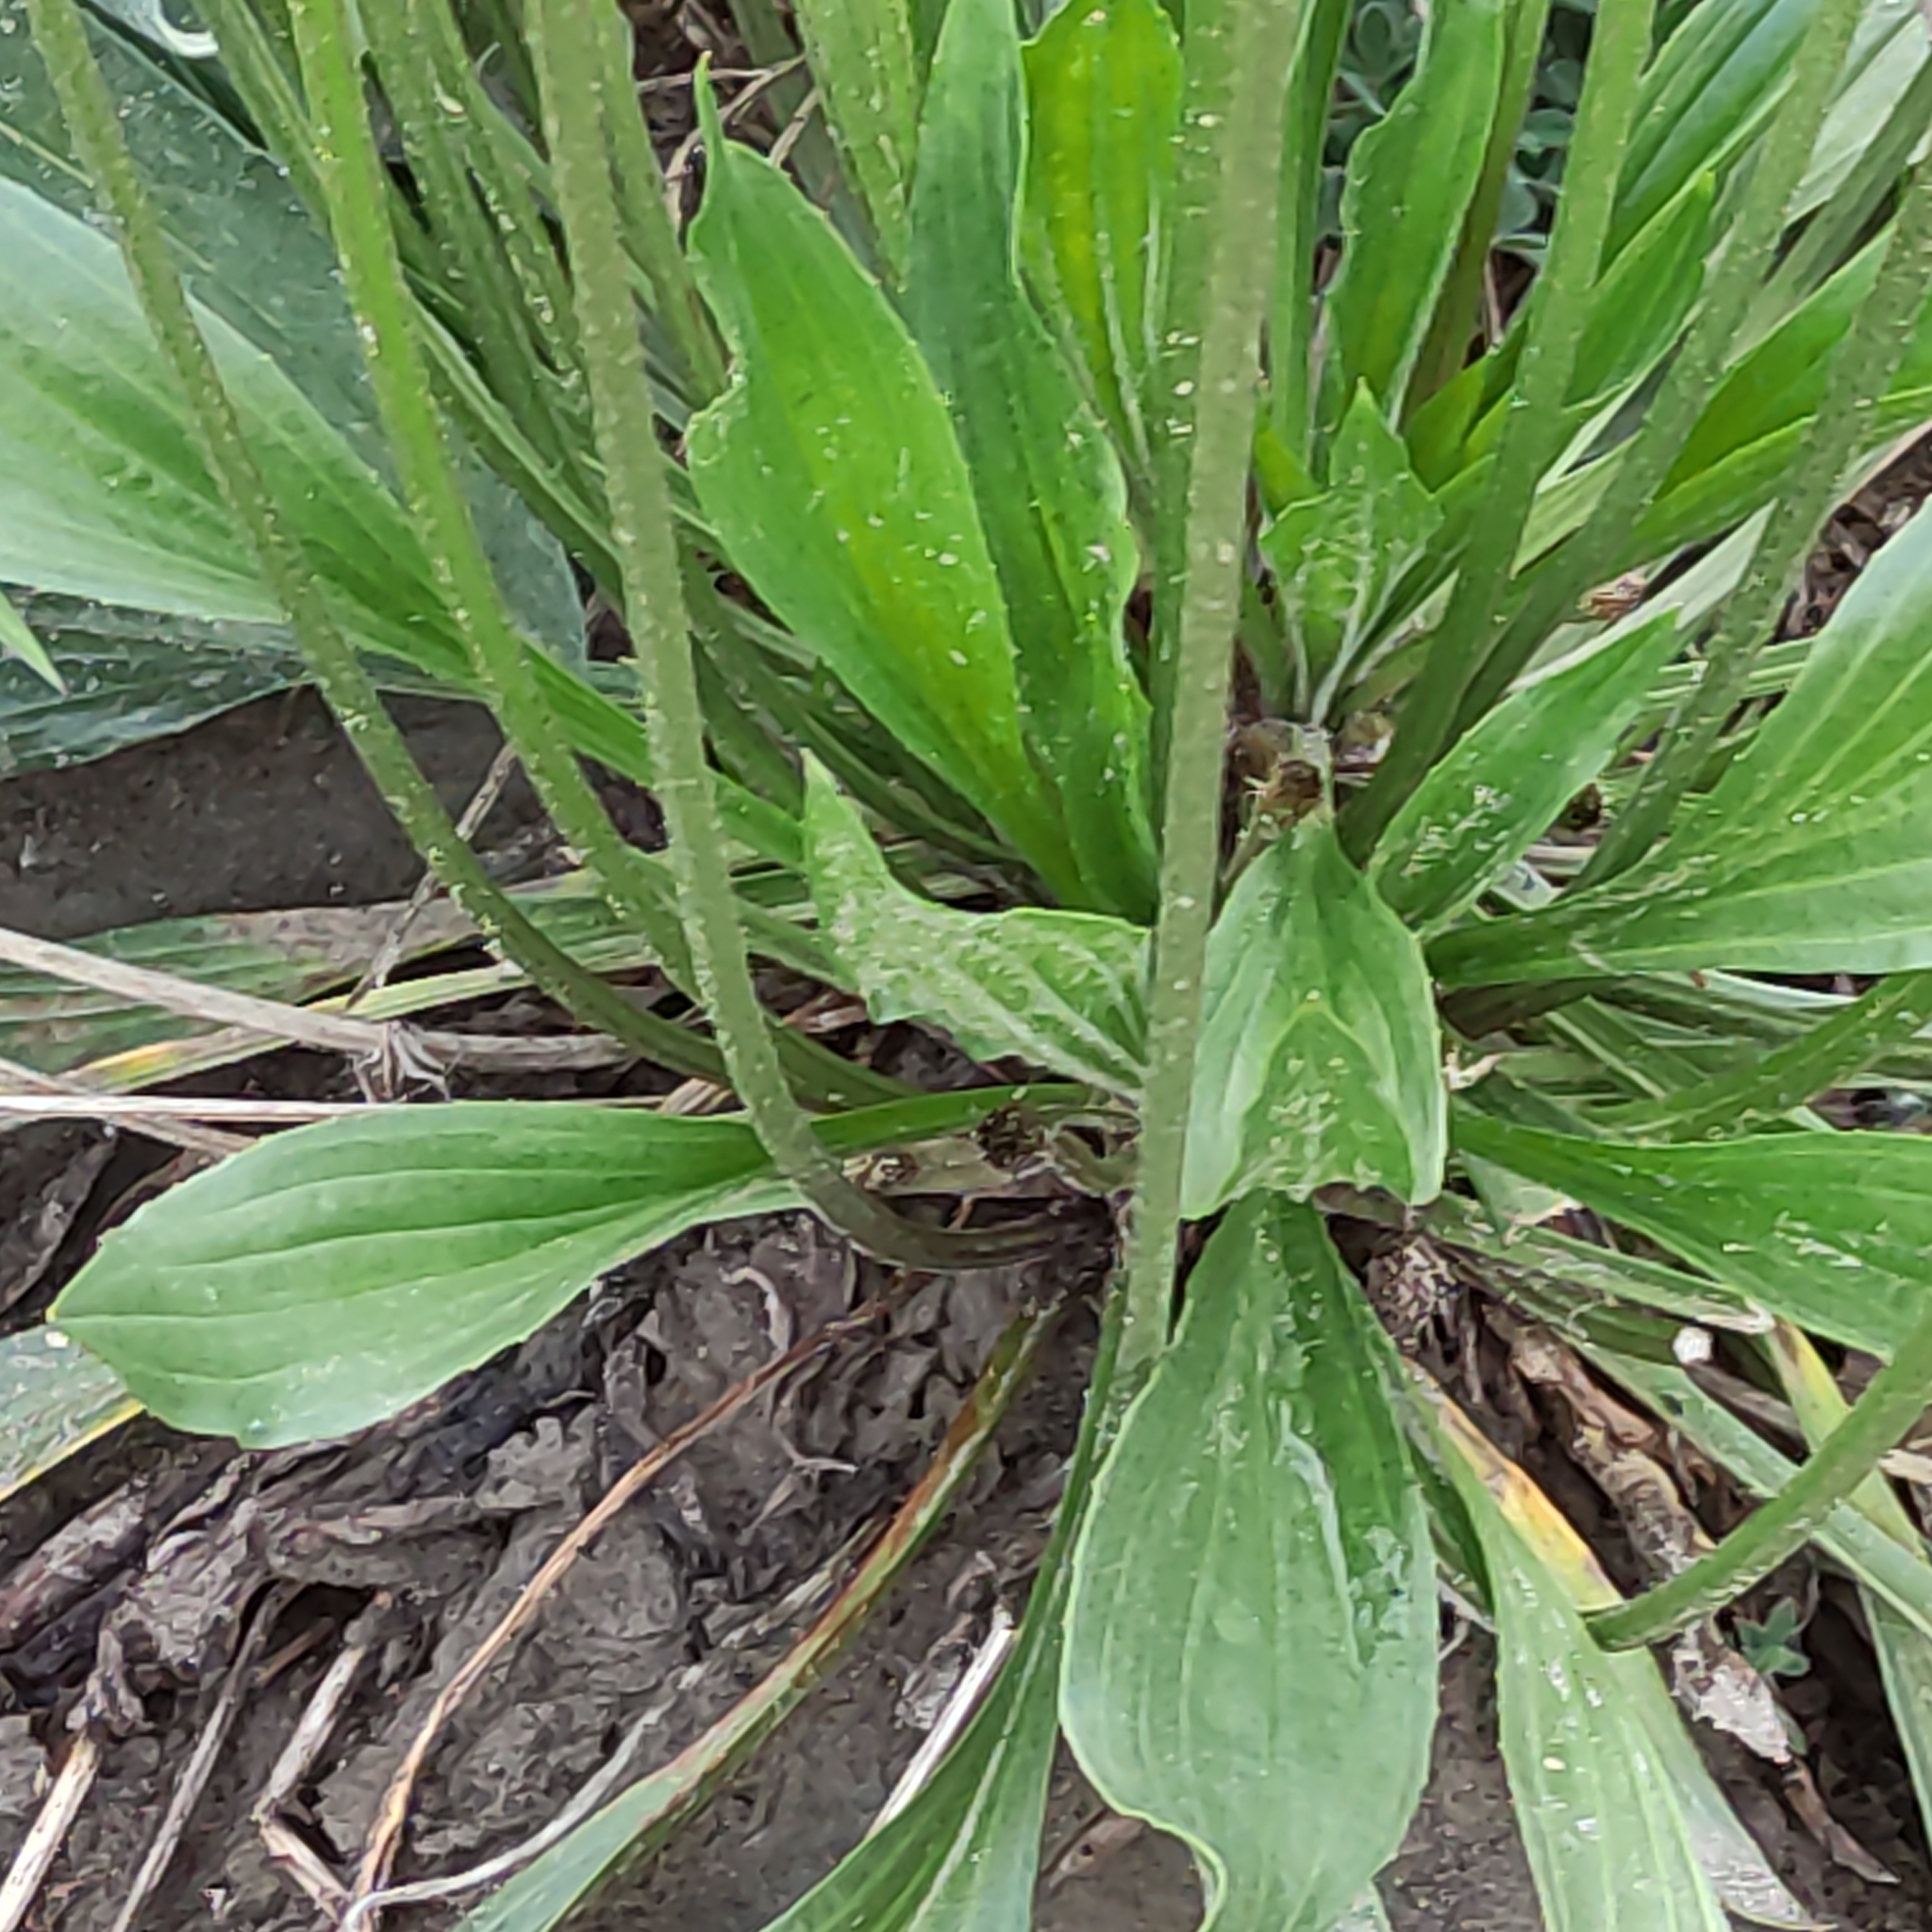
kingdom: Plantae
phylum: Tracheophyta
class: Magnoliopsida
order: Lamiales
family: Plantaginaceae
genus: Plantago
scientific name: Plantago lanceolata
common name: Ribwort plantain
